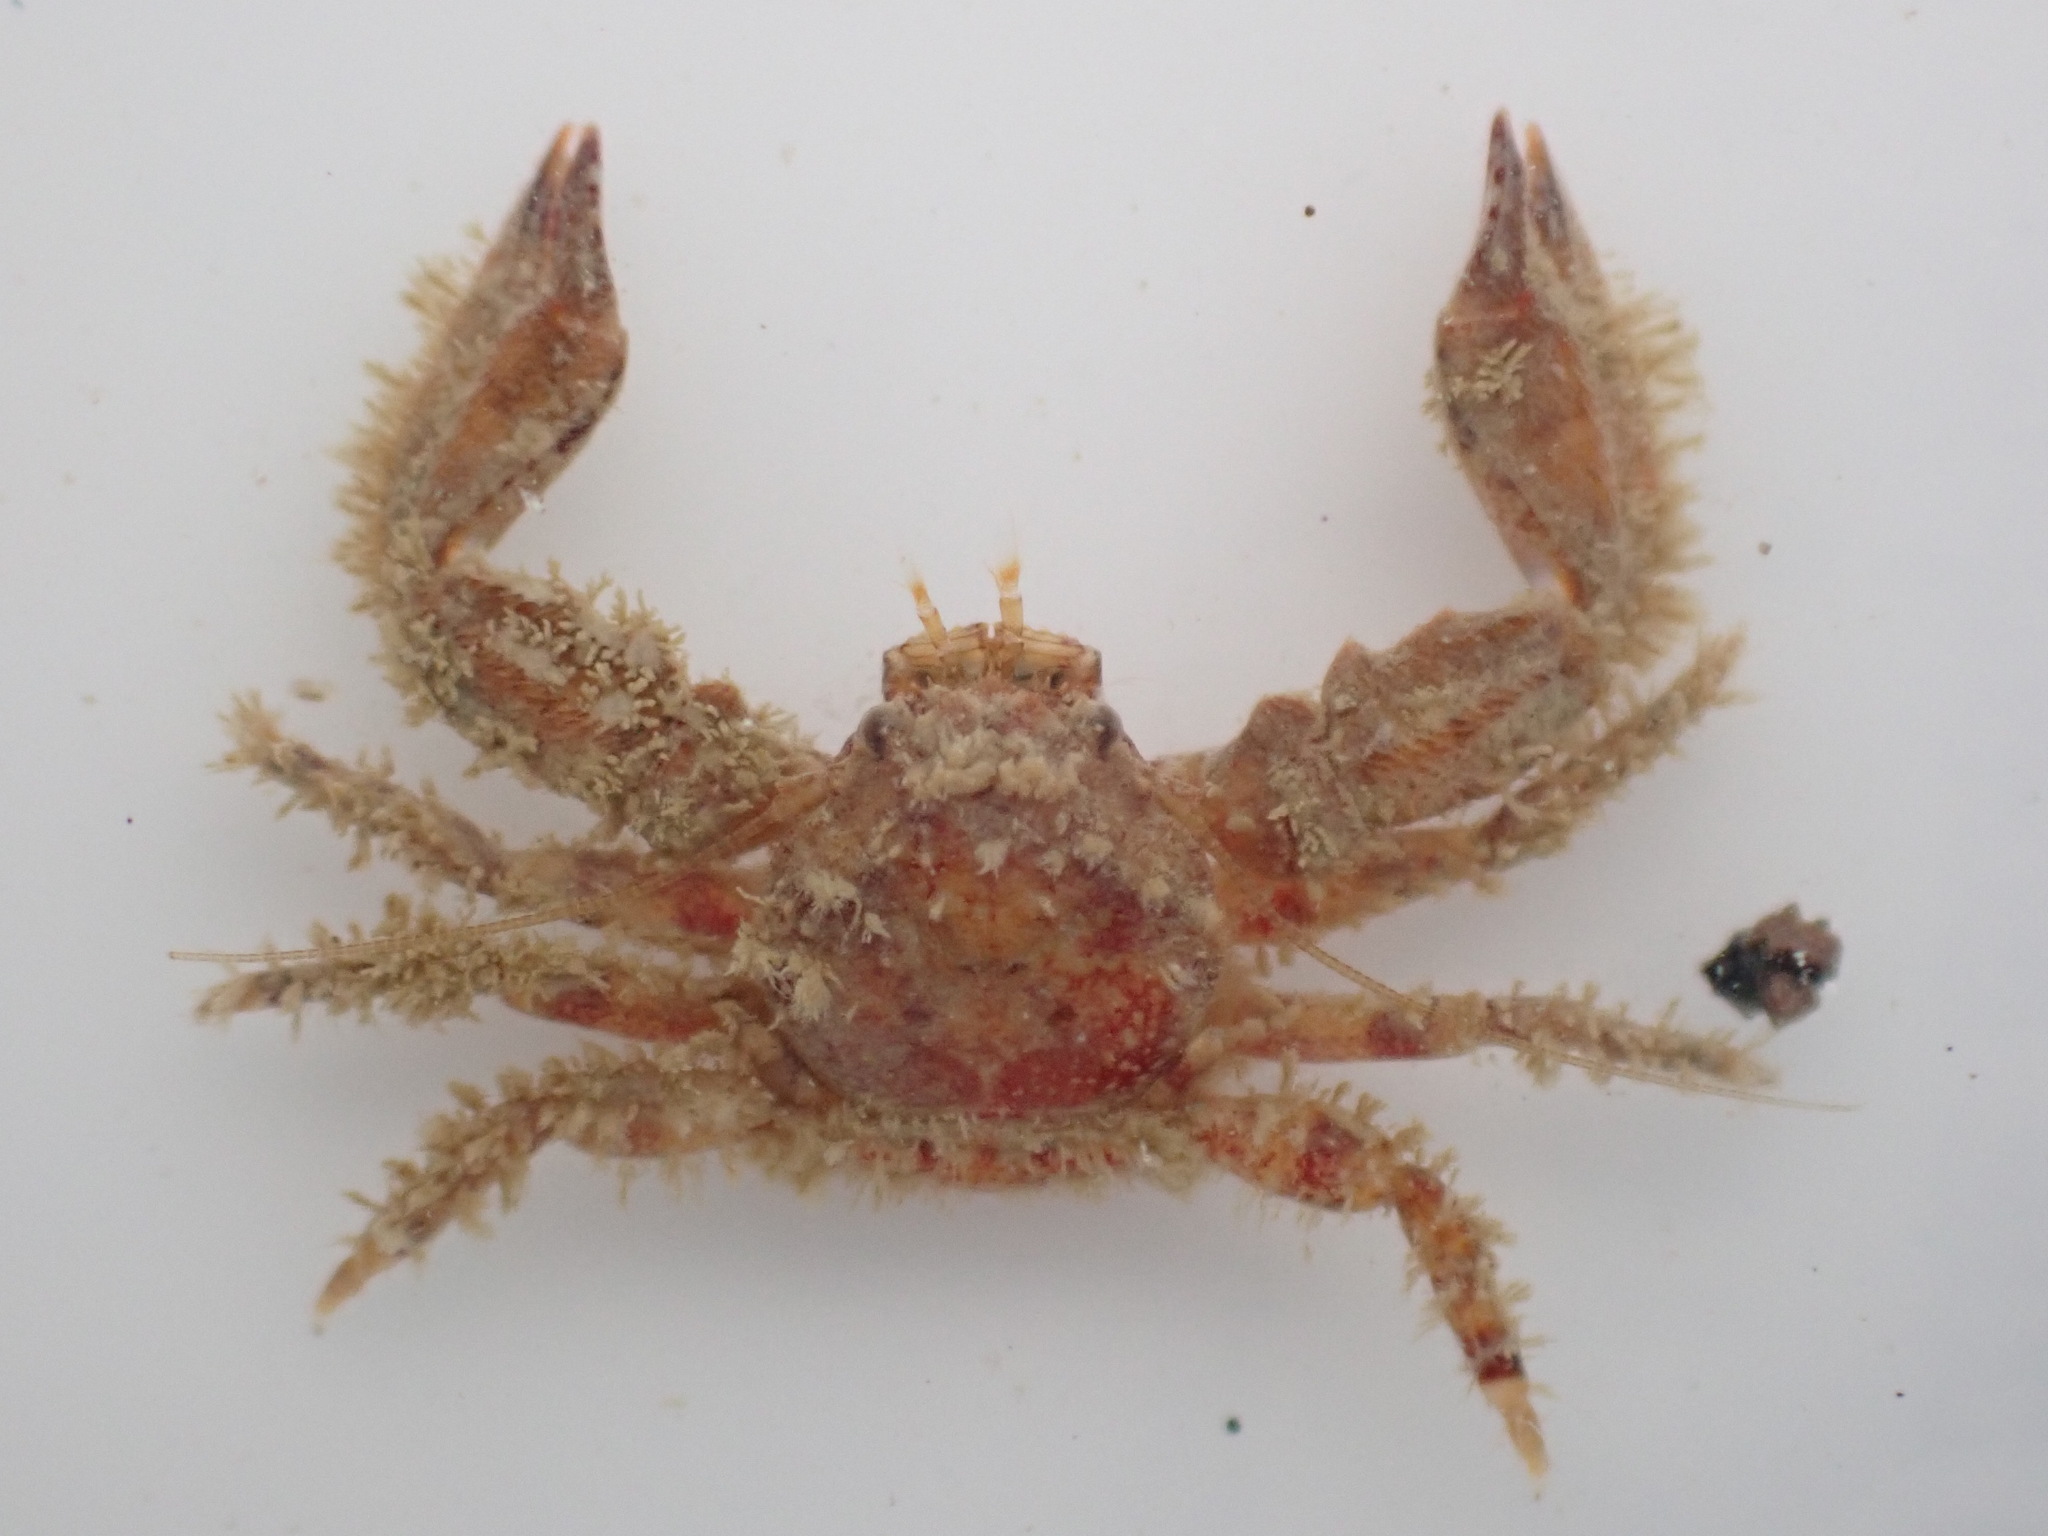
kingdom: Animalia
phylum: Arthropoda
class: Malacostraca
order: Decapoda
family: Porcellanidae
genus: Petrolisthes
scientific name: Petrolisthes novaezelandiae
